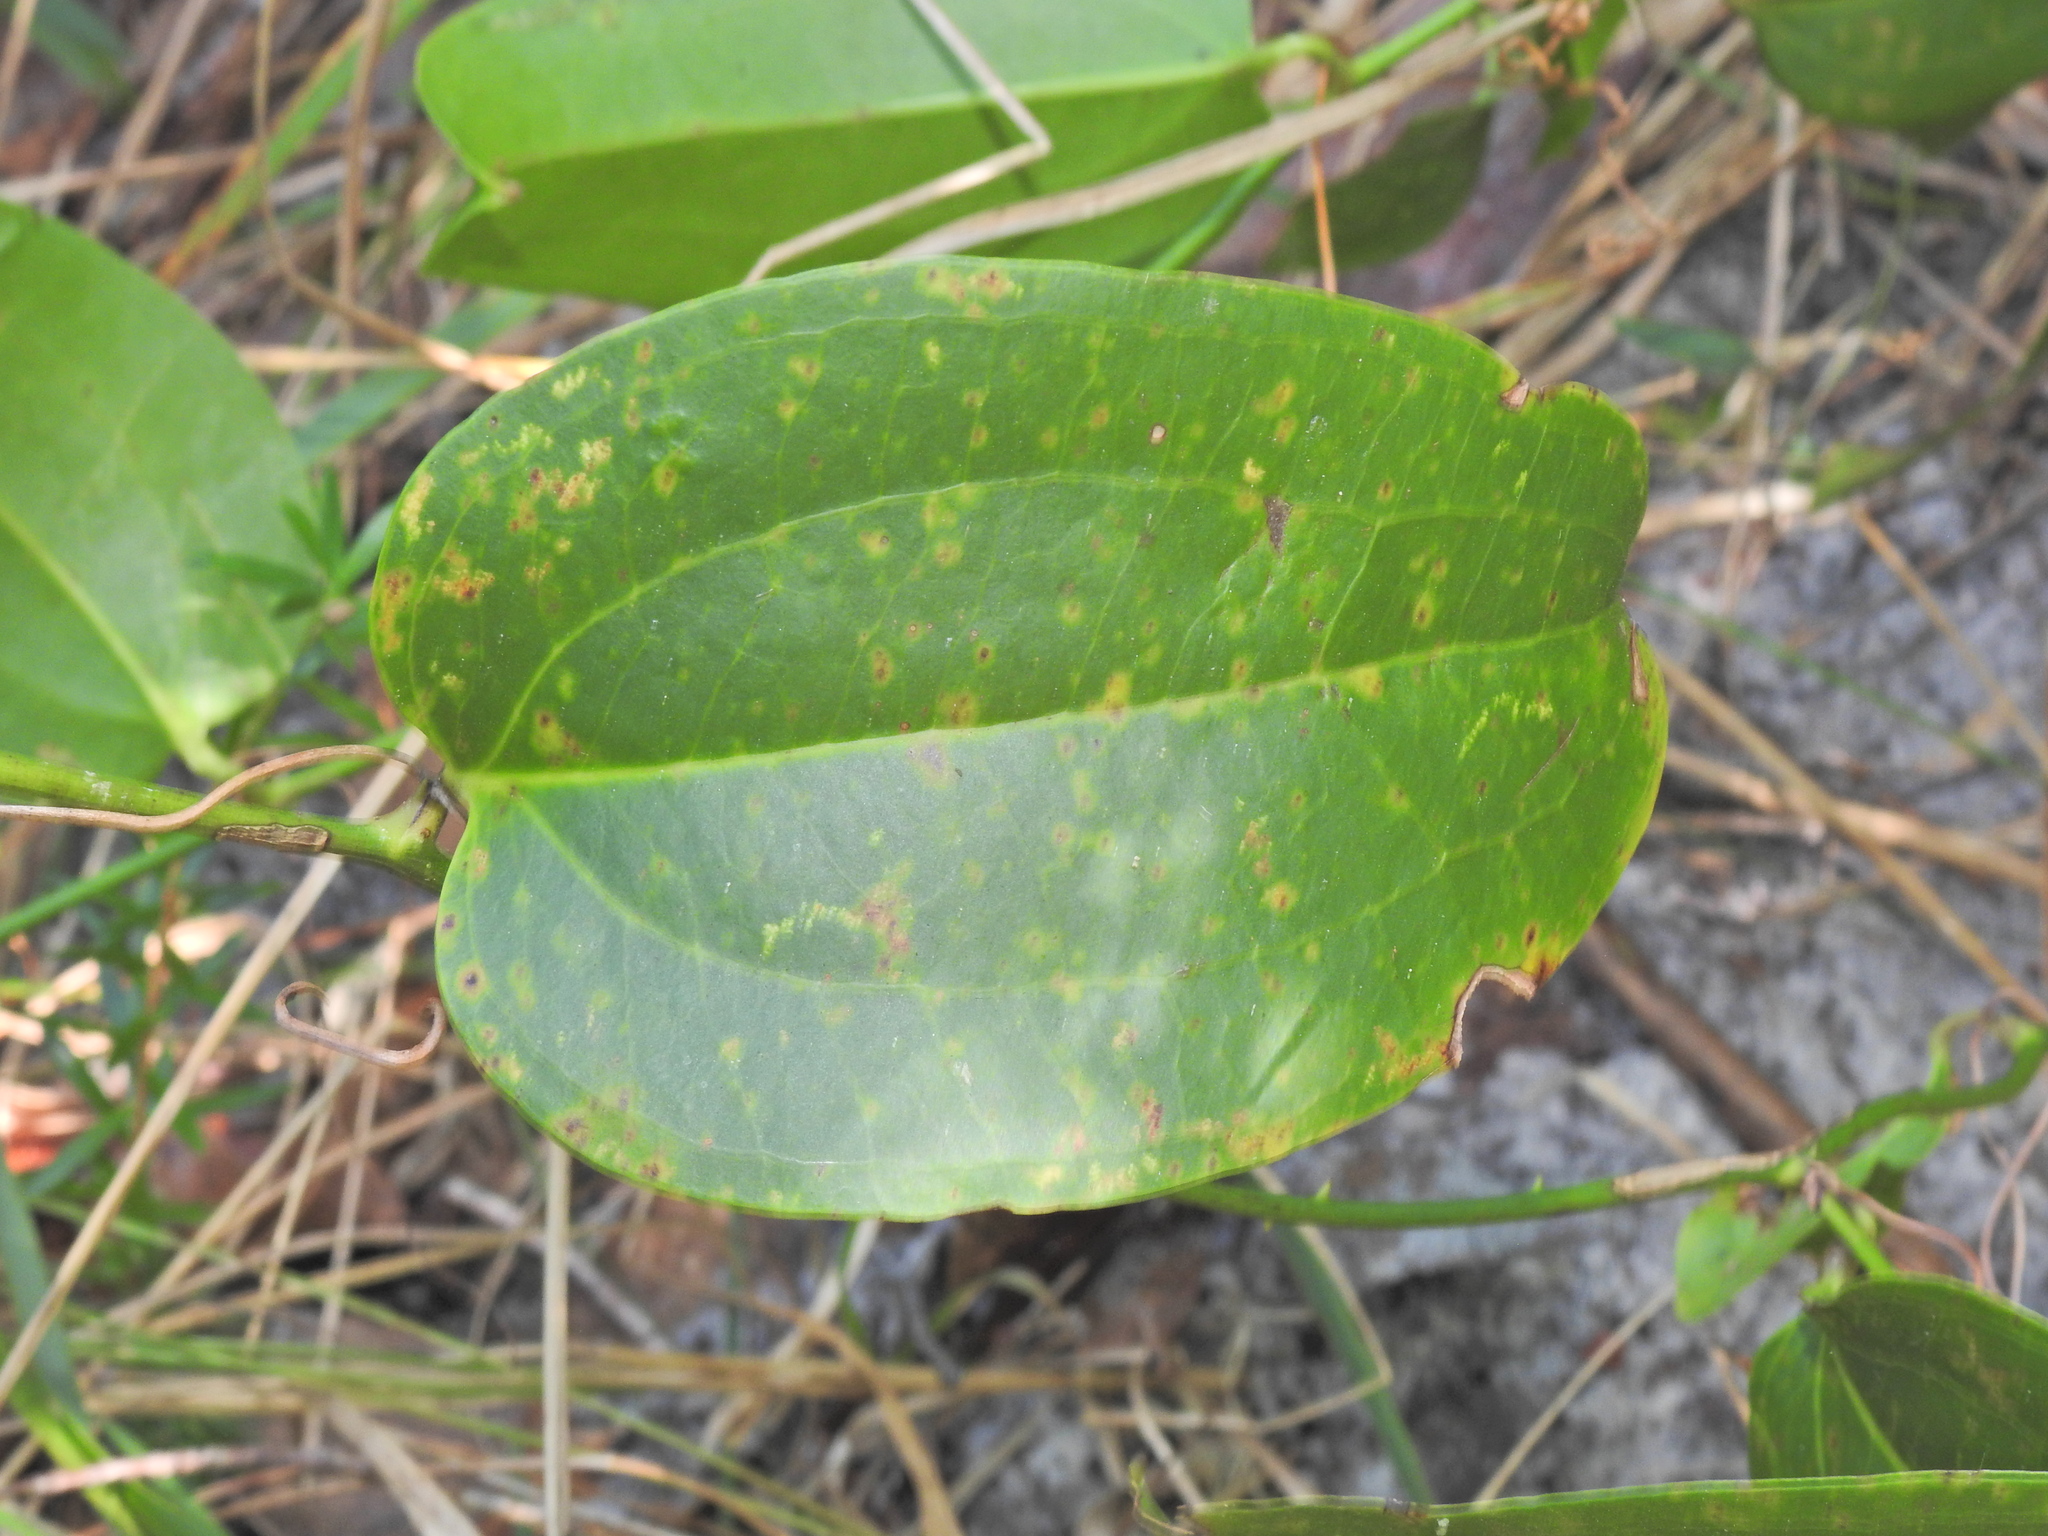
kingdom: Plantae
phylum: Tracheophyta
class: Liliopsida
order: Liliales
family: Smilacaceae
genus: Smilax
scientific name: Smilax australis
